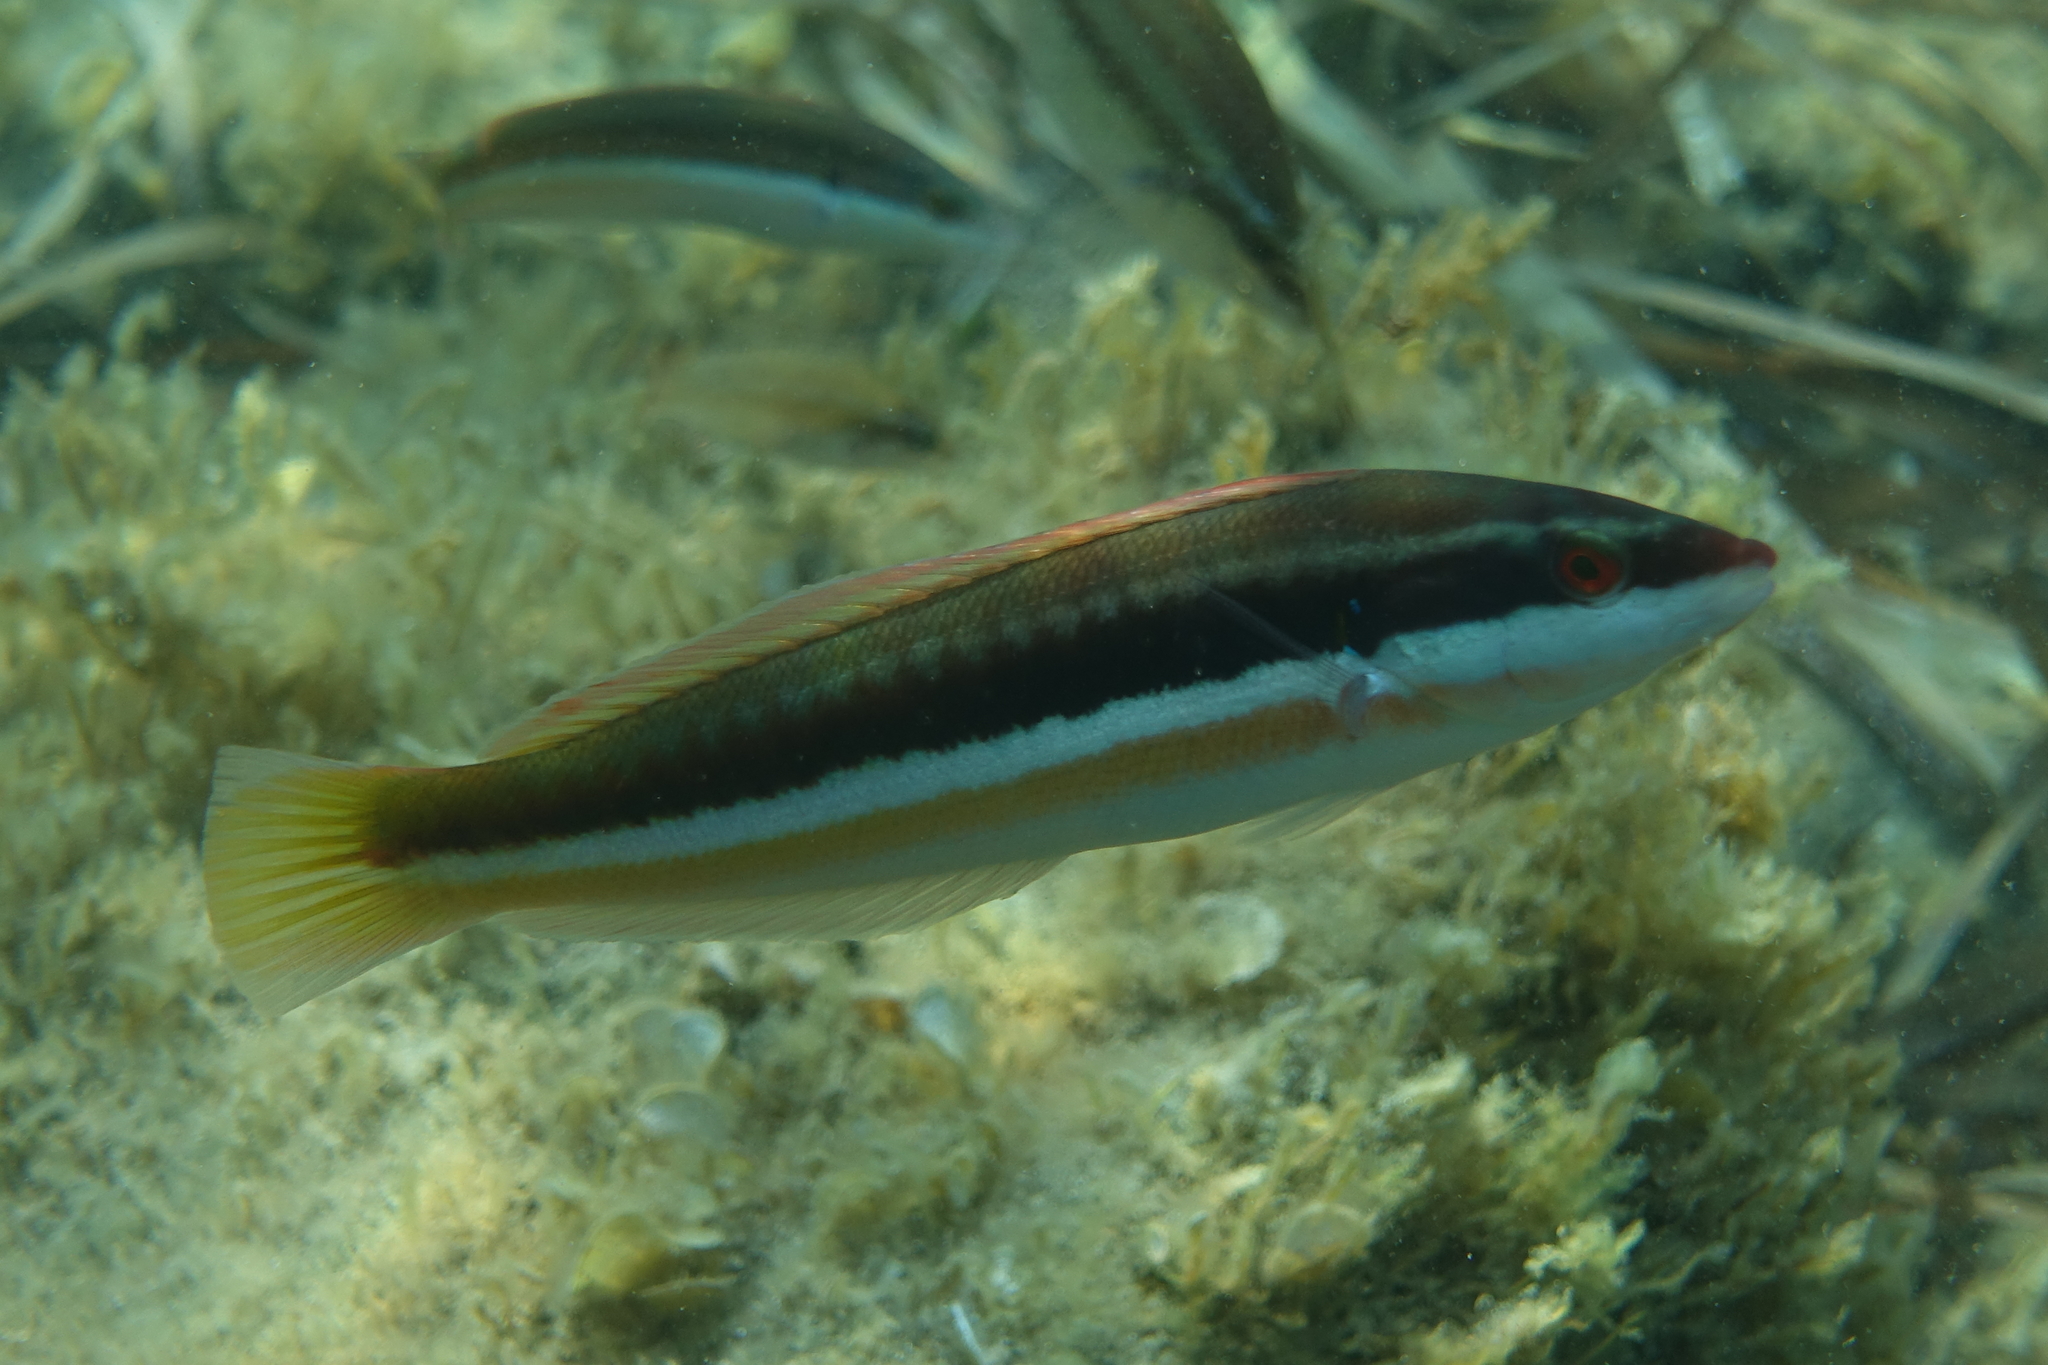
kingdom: Animalia
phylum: Chordata
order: Perciformes
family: Labridae
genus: Coris
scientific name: Coris julis
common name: Rainbow wrasse
